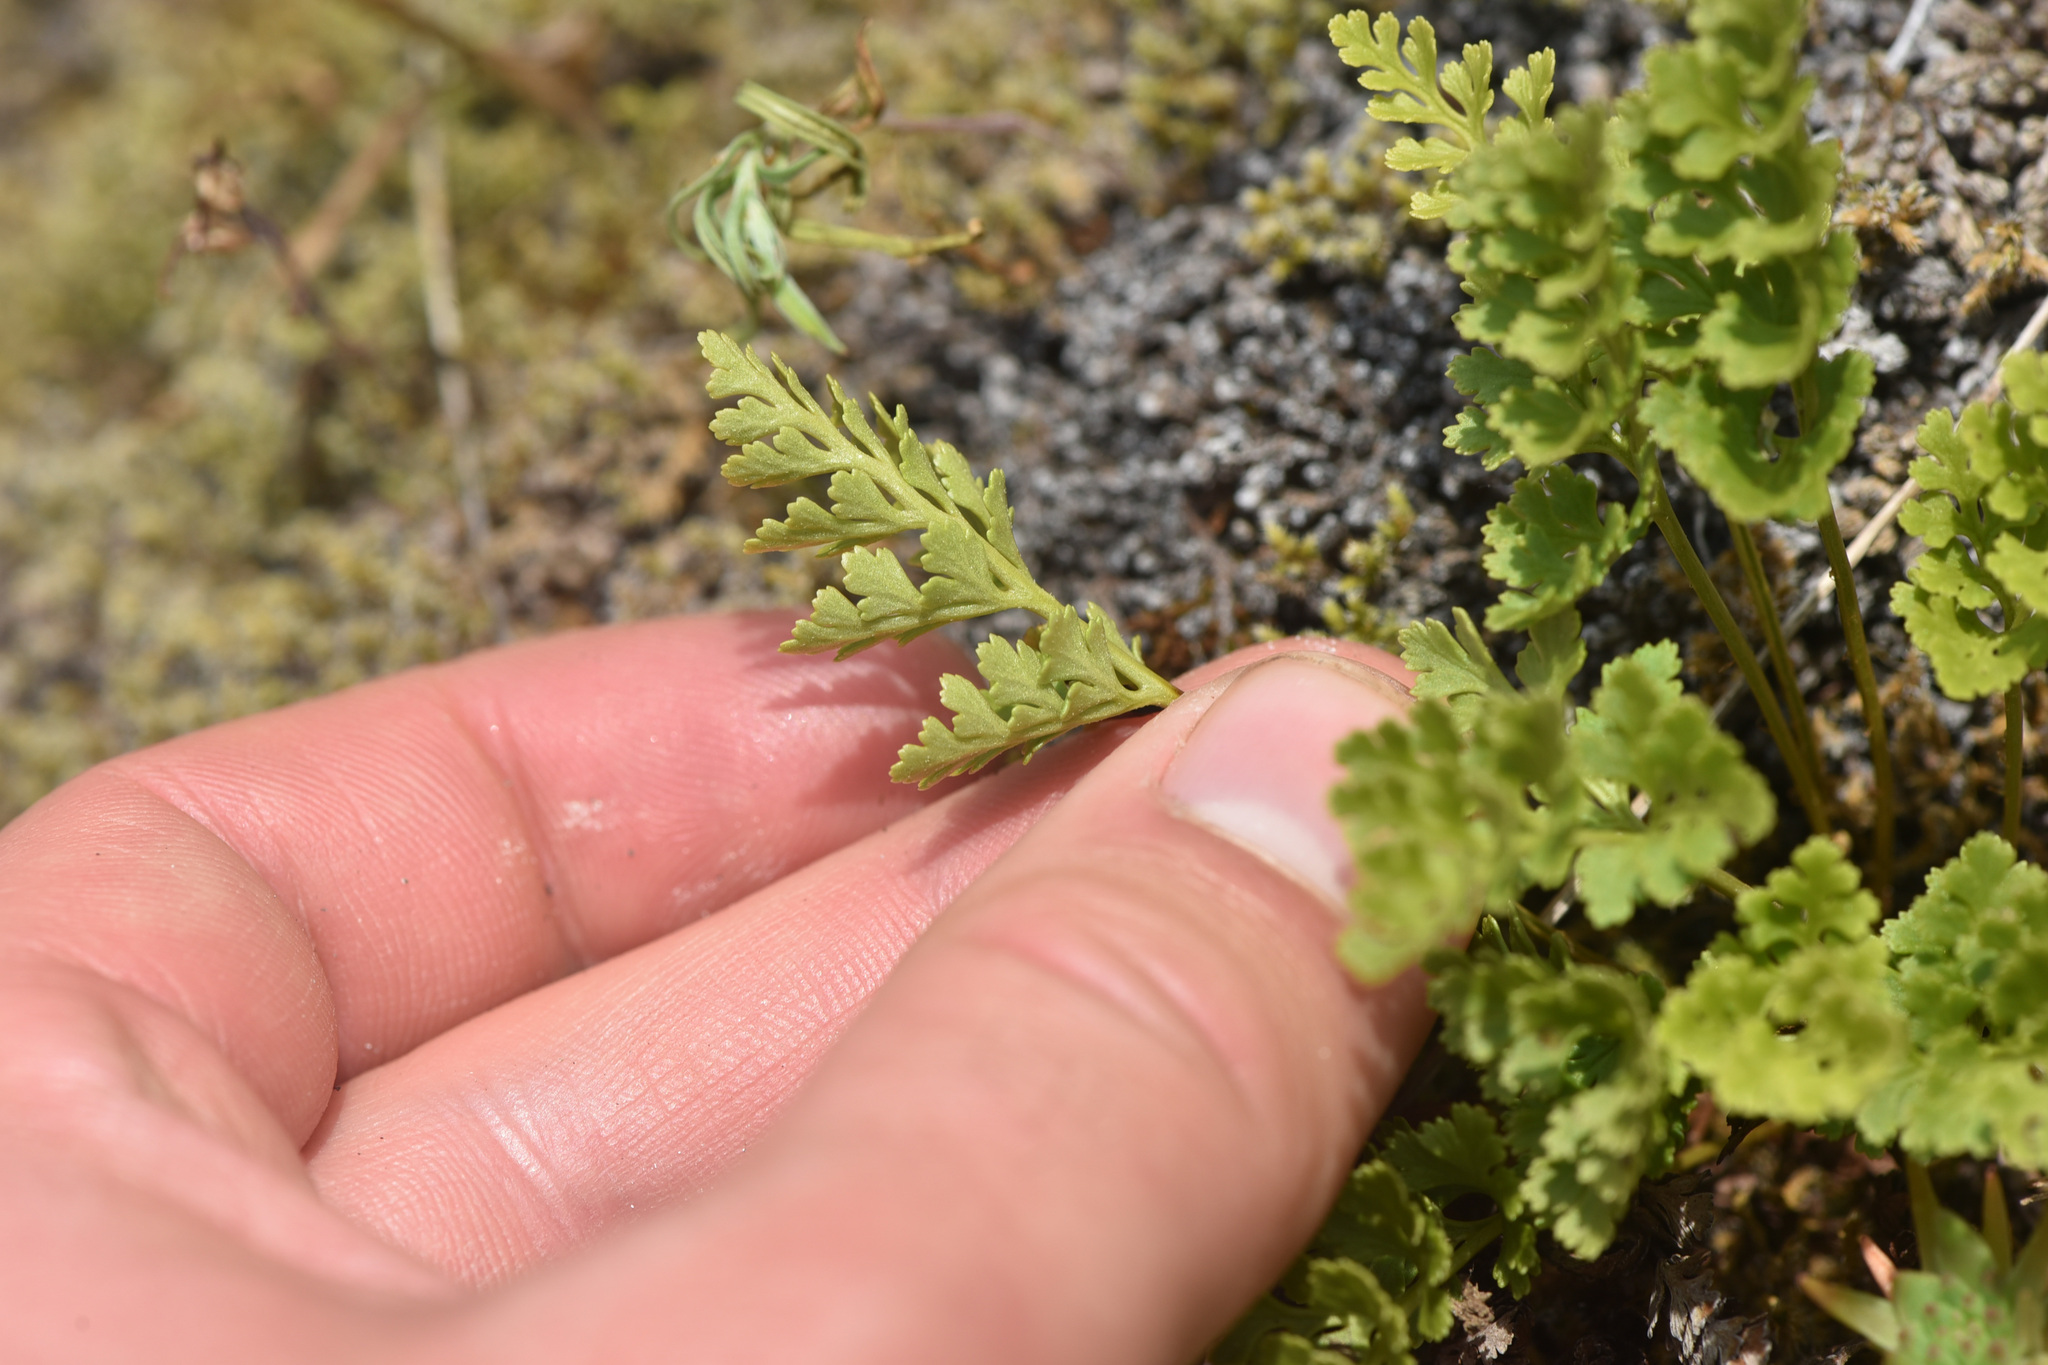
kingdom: Plantae
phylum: Tracheophyta
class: Polypodiopsida
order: Polypodiales
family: Pteridaceae
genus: Cryptogramma
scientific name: Cryptogramma acrostichoides
